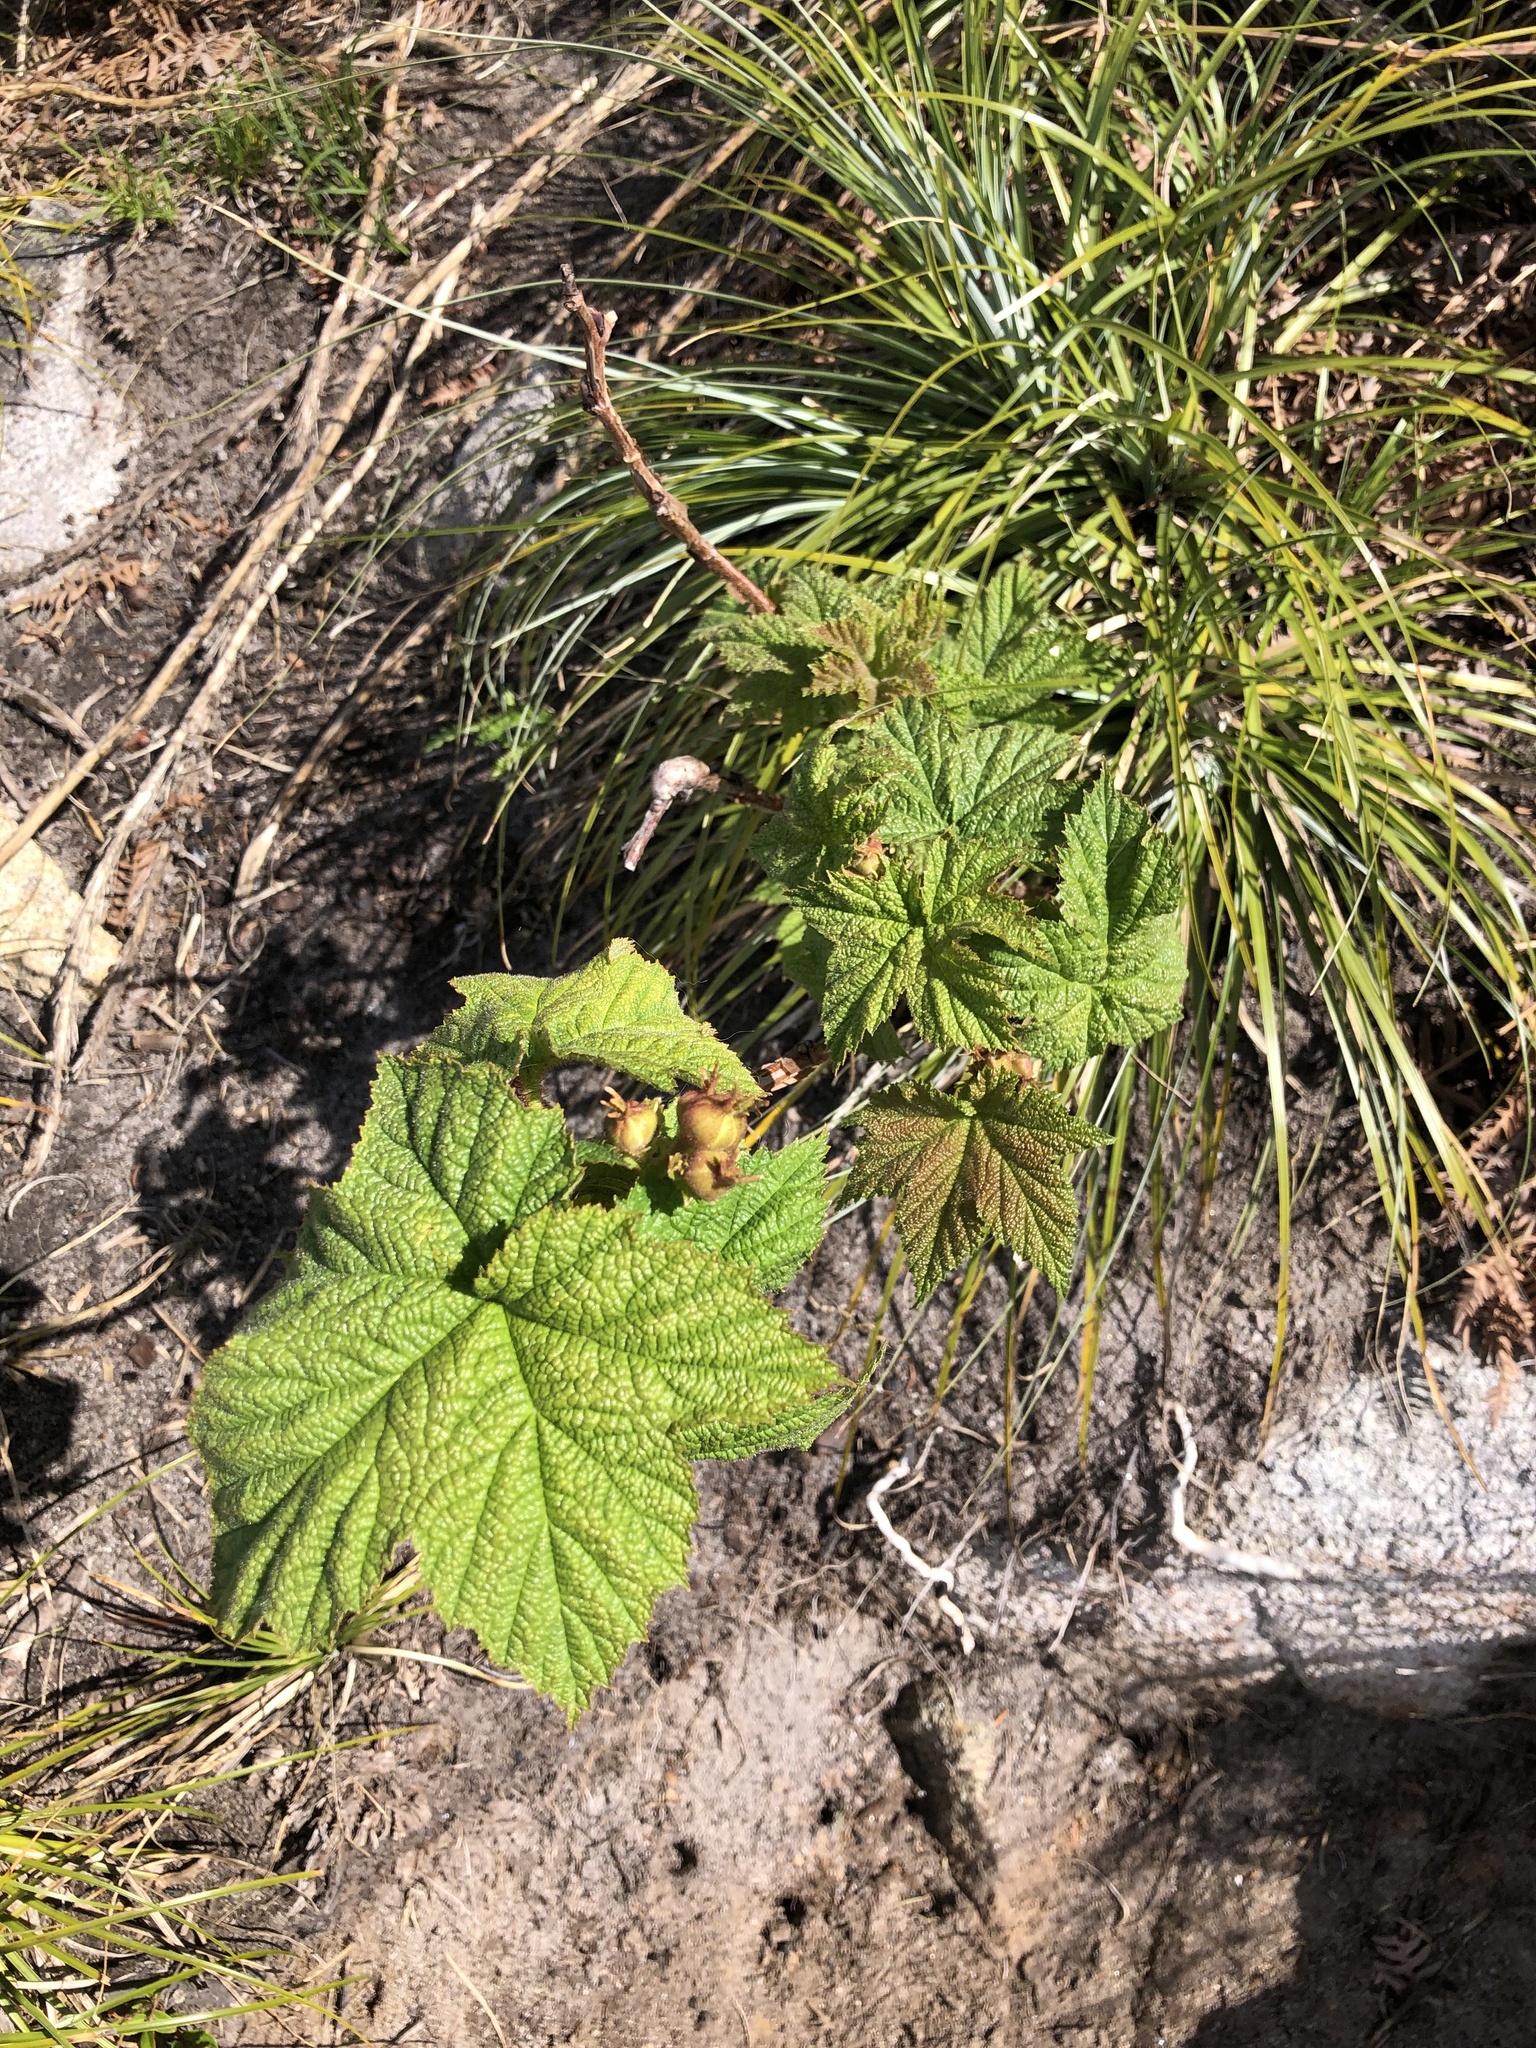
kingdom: Plantae
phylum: Tracheophyta
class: Magnoliopsida
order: Rosales
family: Rosaceae
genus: Rubus
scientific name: Rubus parviflorus
